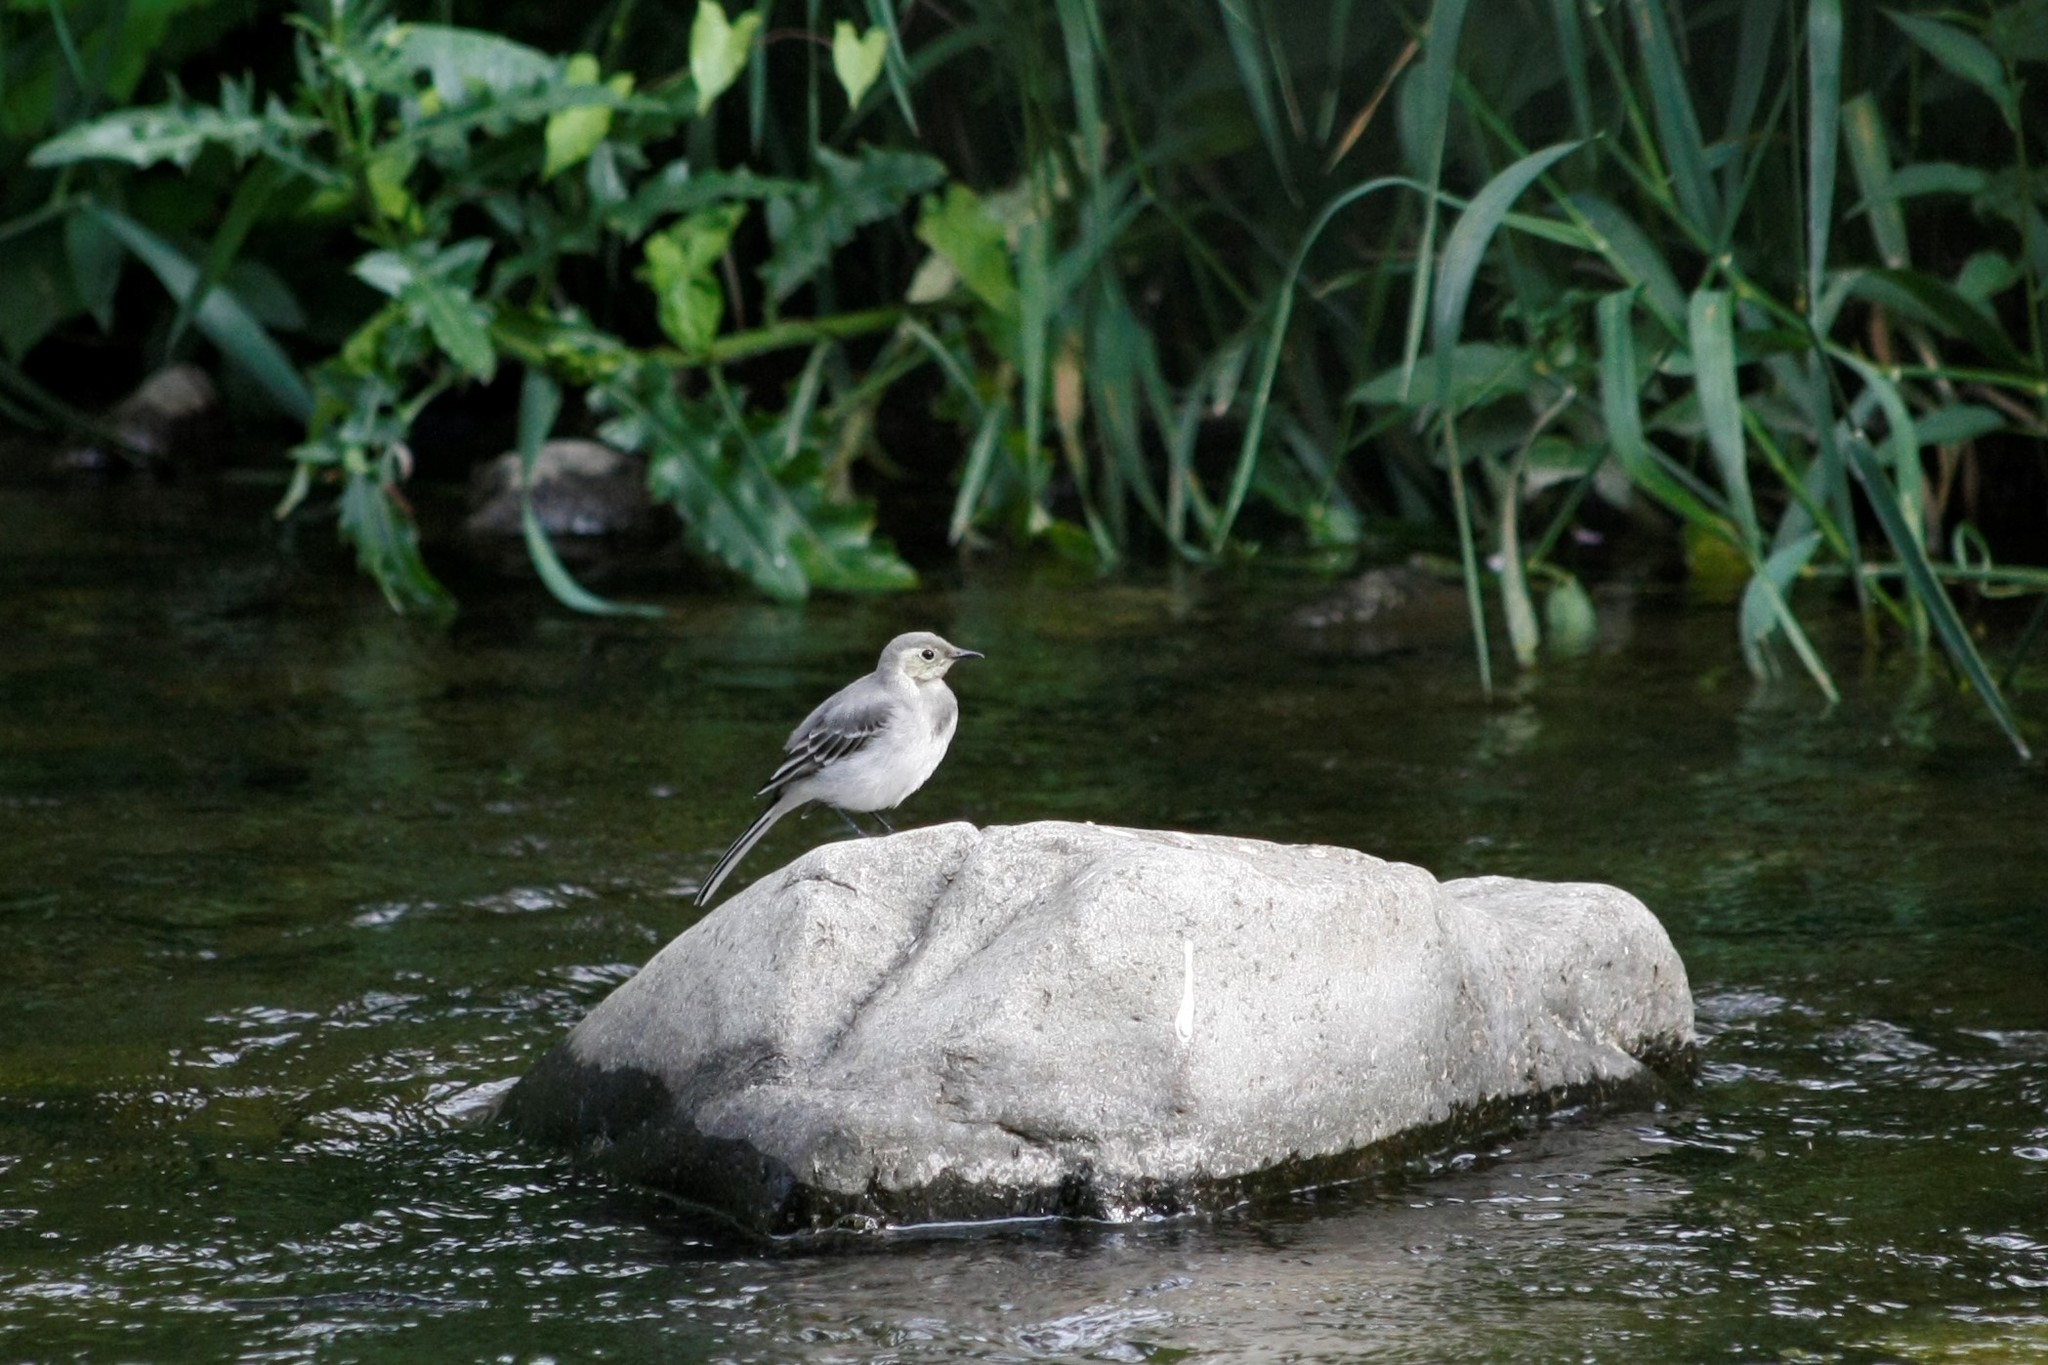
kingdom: Animalia
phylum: Chordata
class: Aves
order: Passeriformes
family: Motacillidae
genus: Motacilla
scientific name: Motacilla alba
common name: White wagtail
